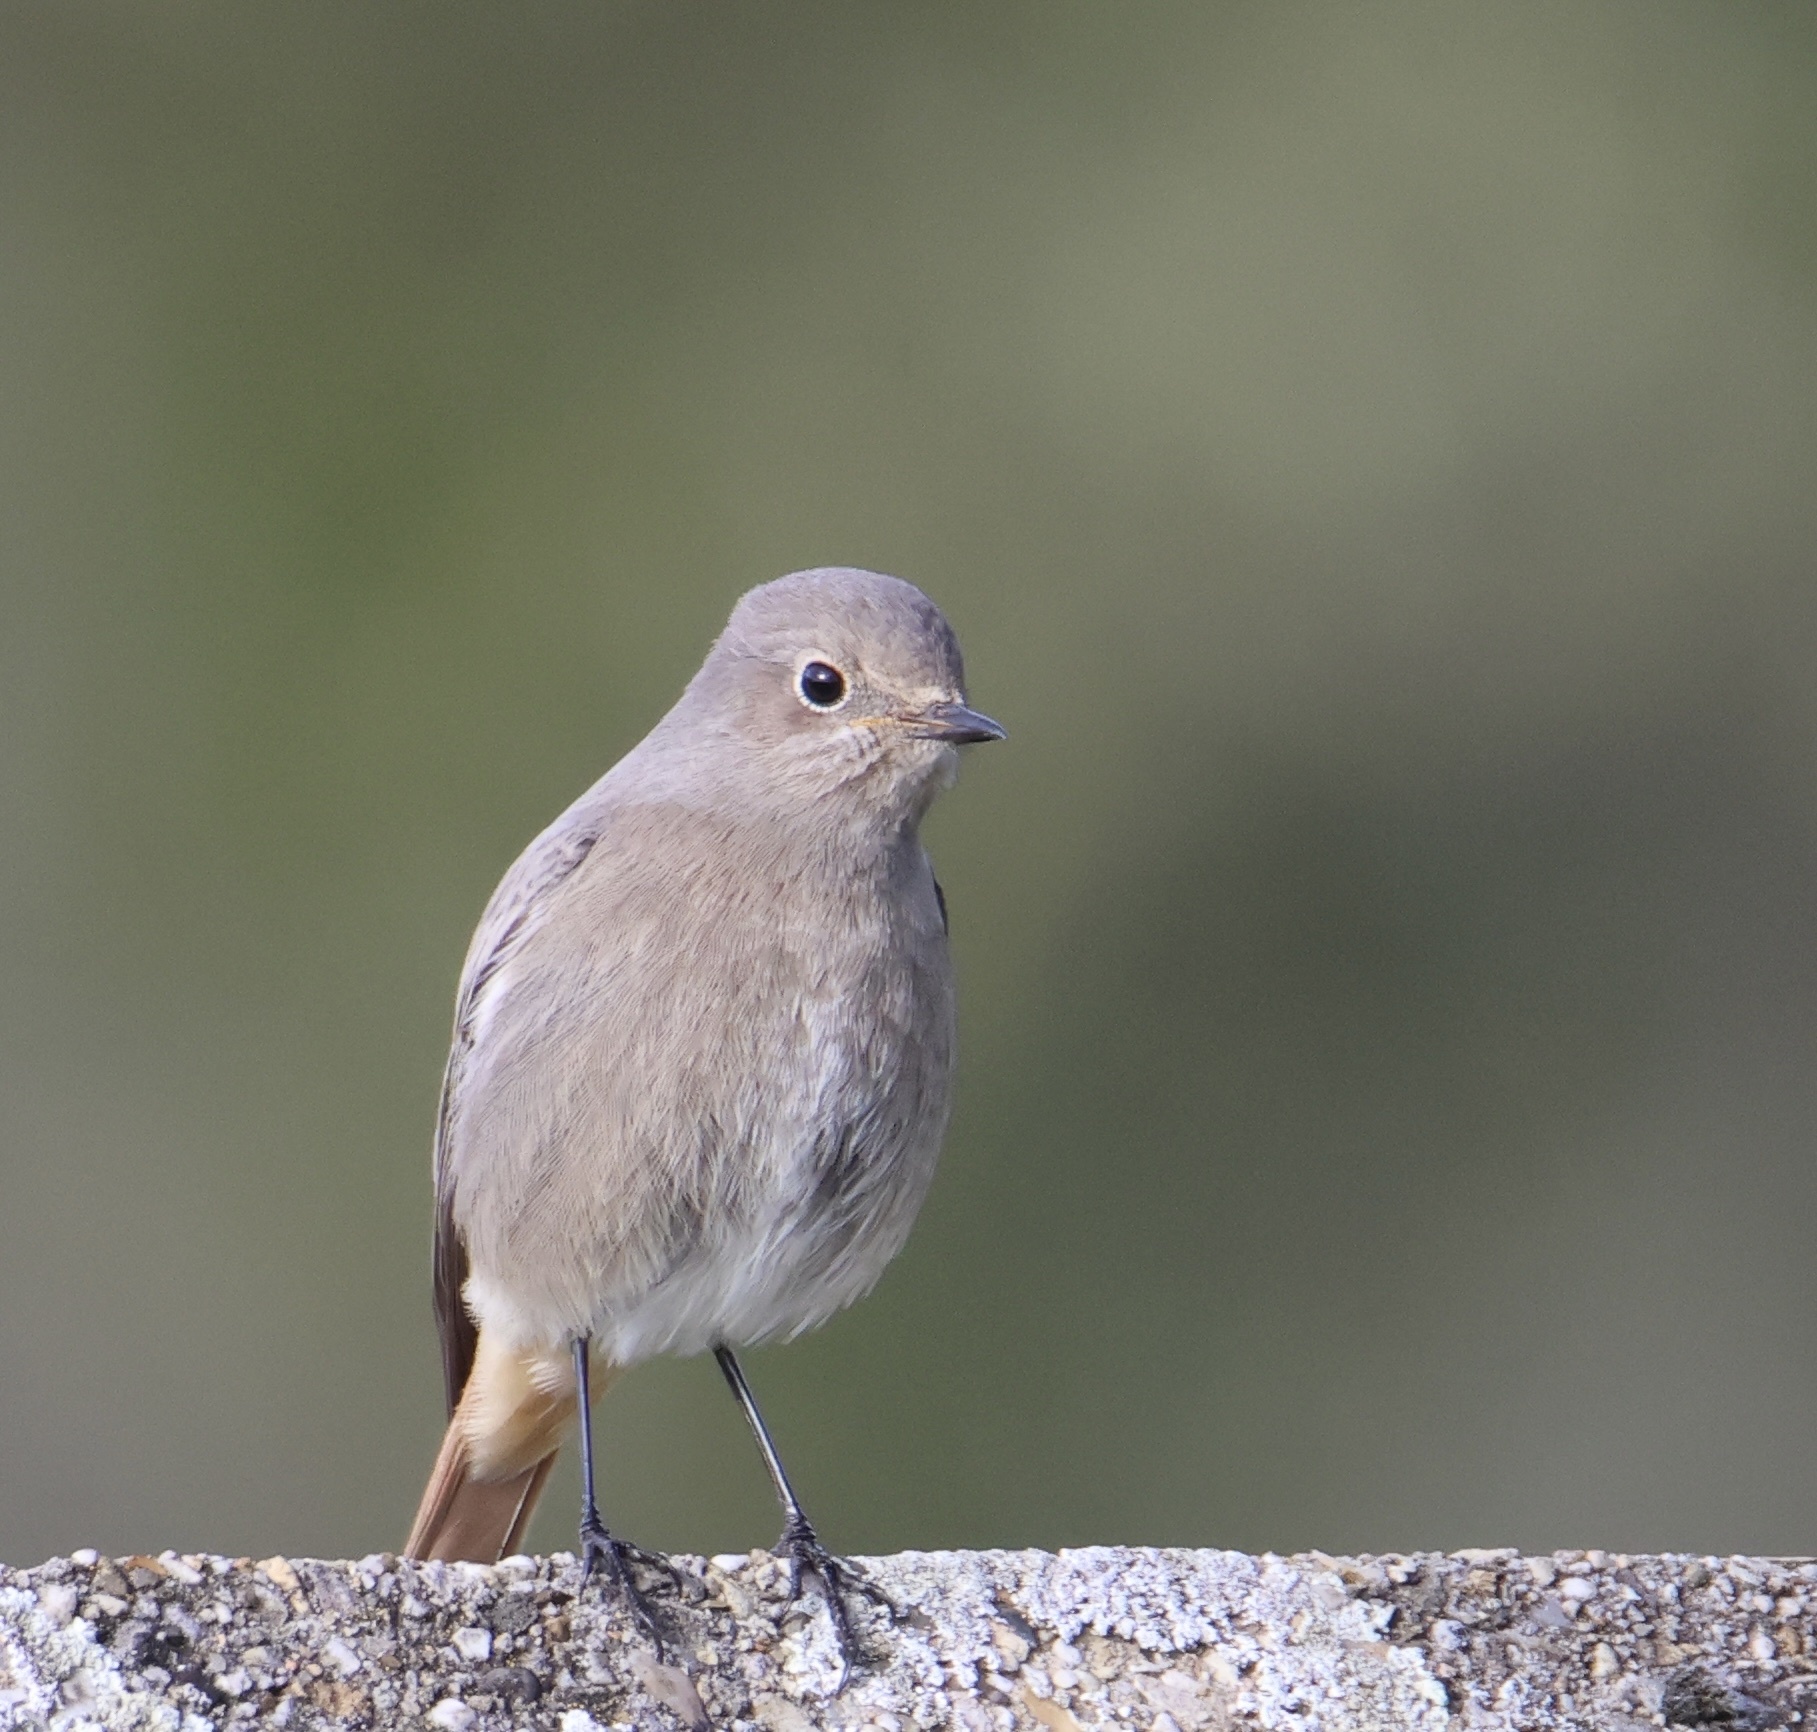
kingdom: Animalia
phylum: Chordata
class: Aves
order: Passeriformes
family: Muscicapidae
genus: Phoenicurus
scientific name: Phoenicurus ochruros
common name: Black redstart
